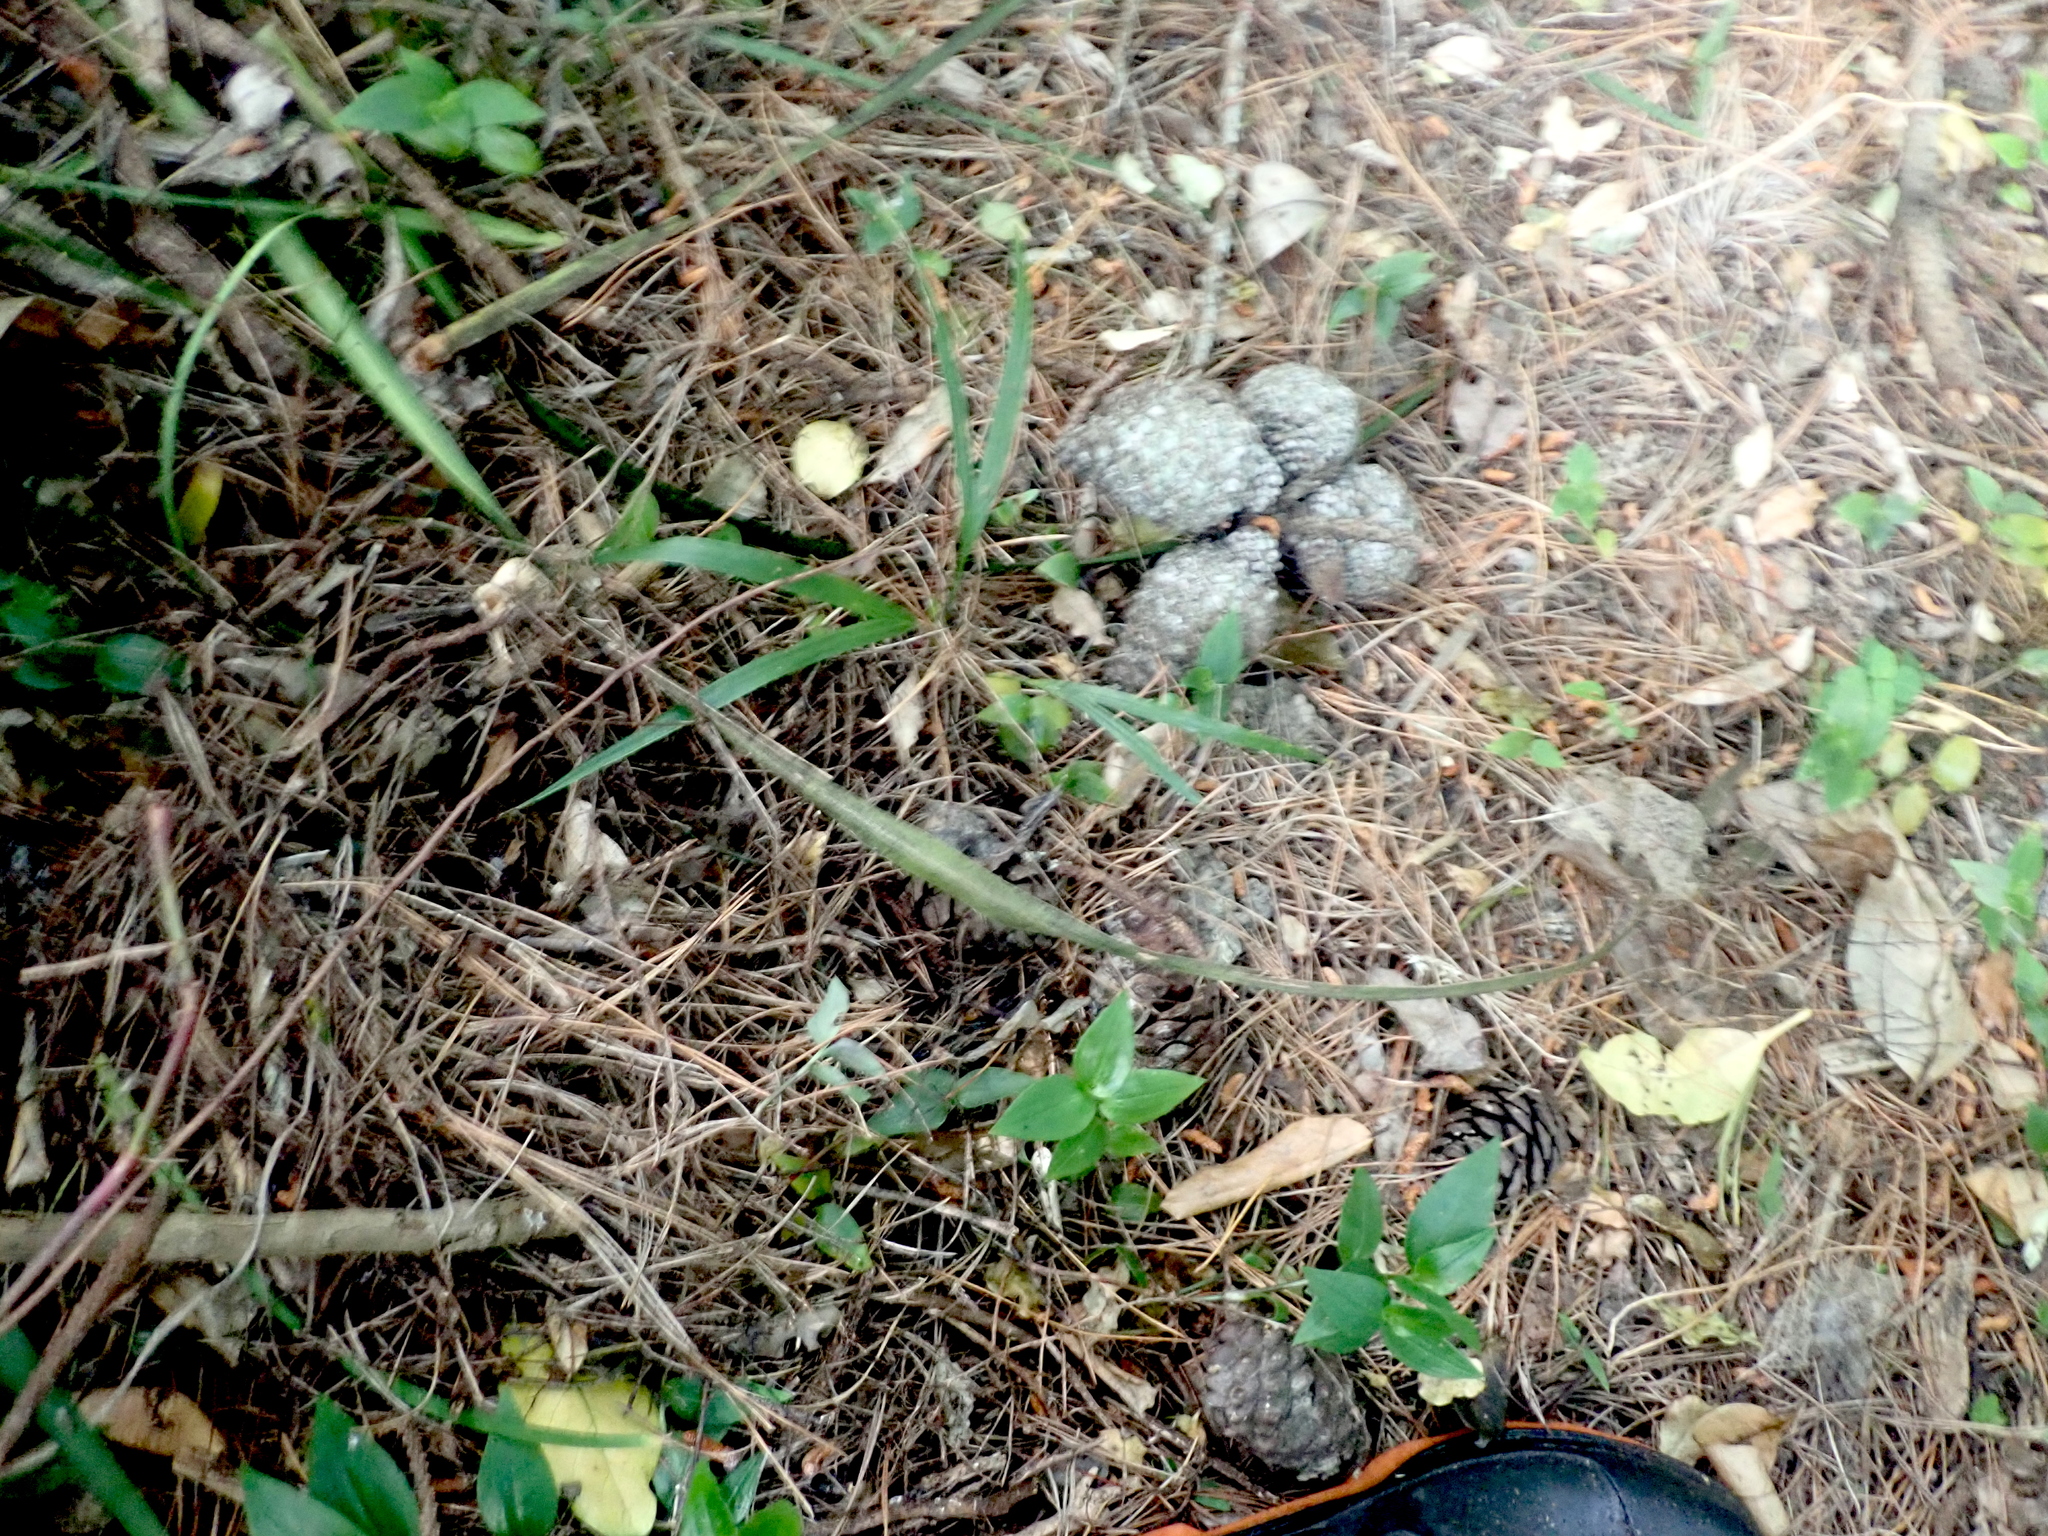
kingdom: Plantae
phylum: Tracheophyta
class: Liliopsida
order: Arecales
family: Arecaceae
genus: Rhopalostylis
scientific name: Rhopalostylis sapida
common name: Feather-duster palm
